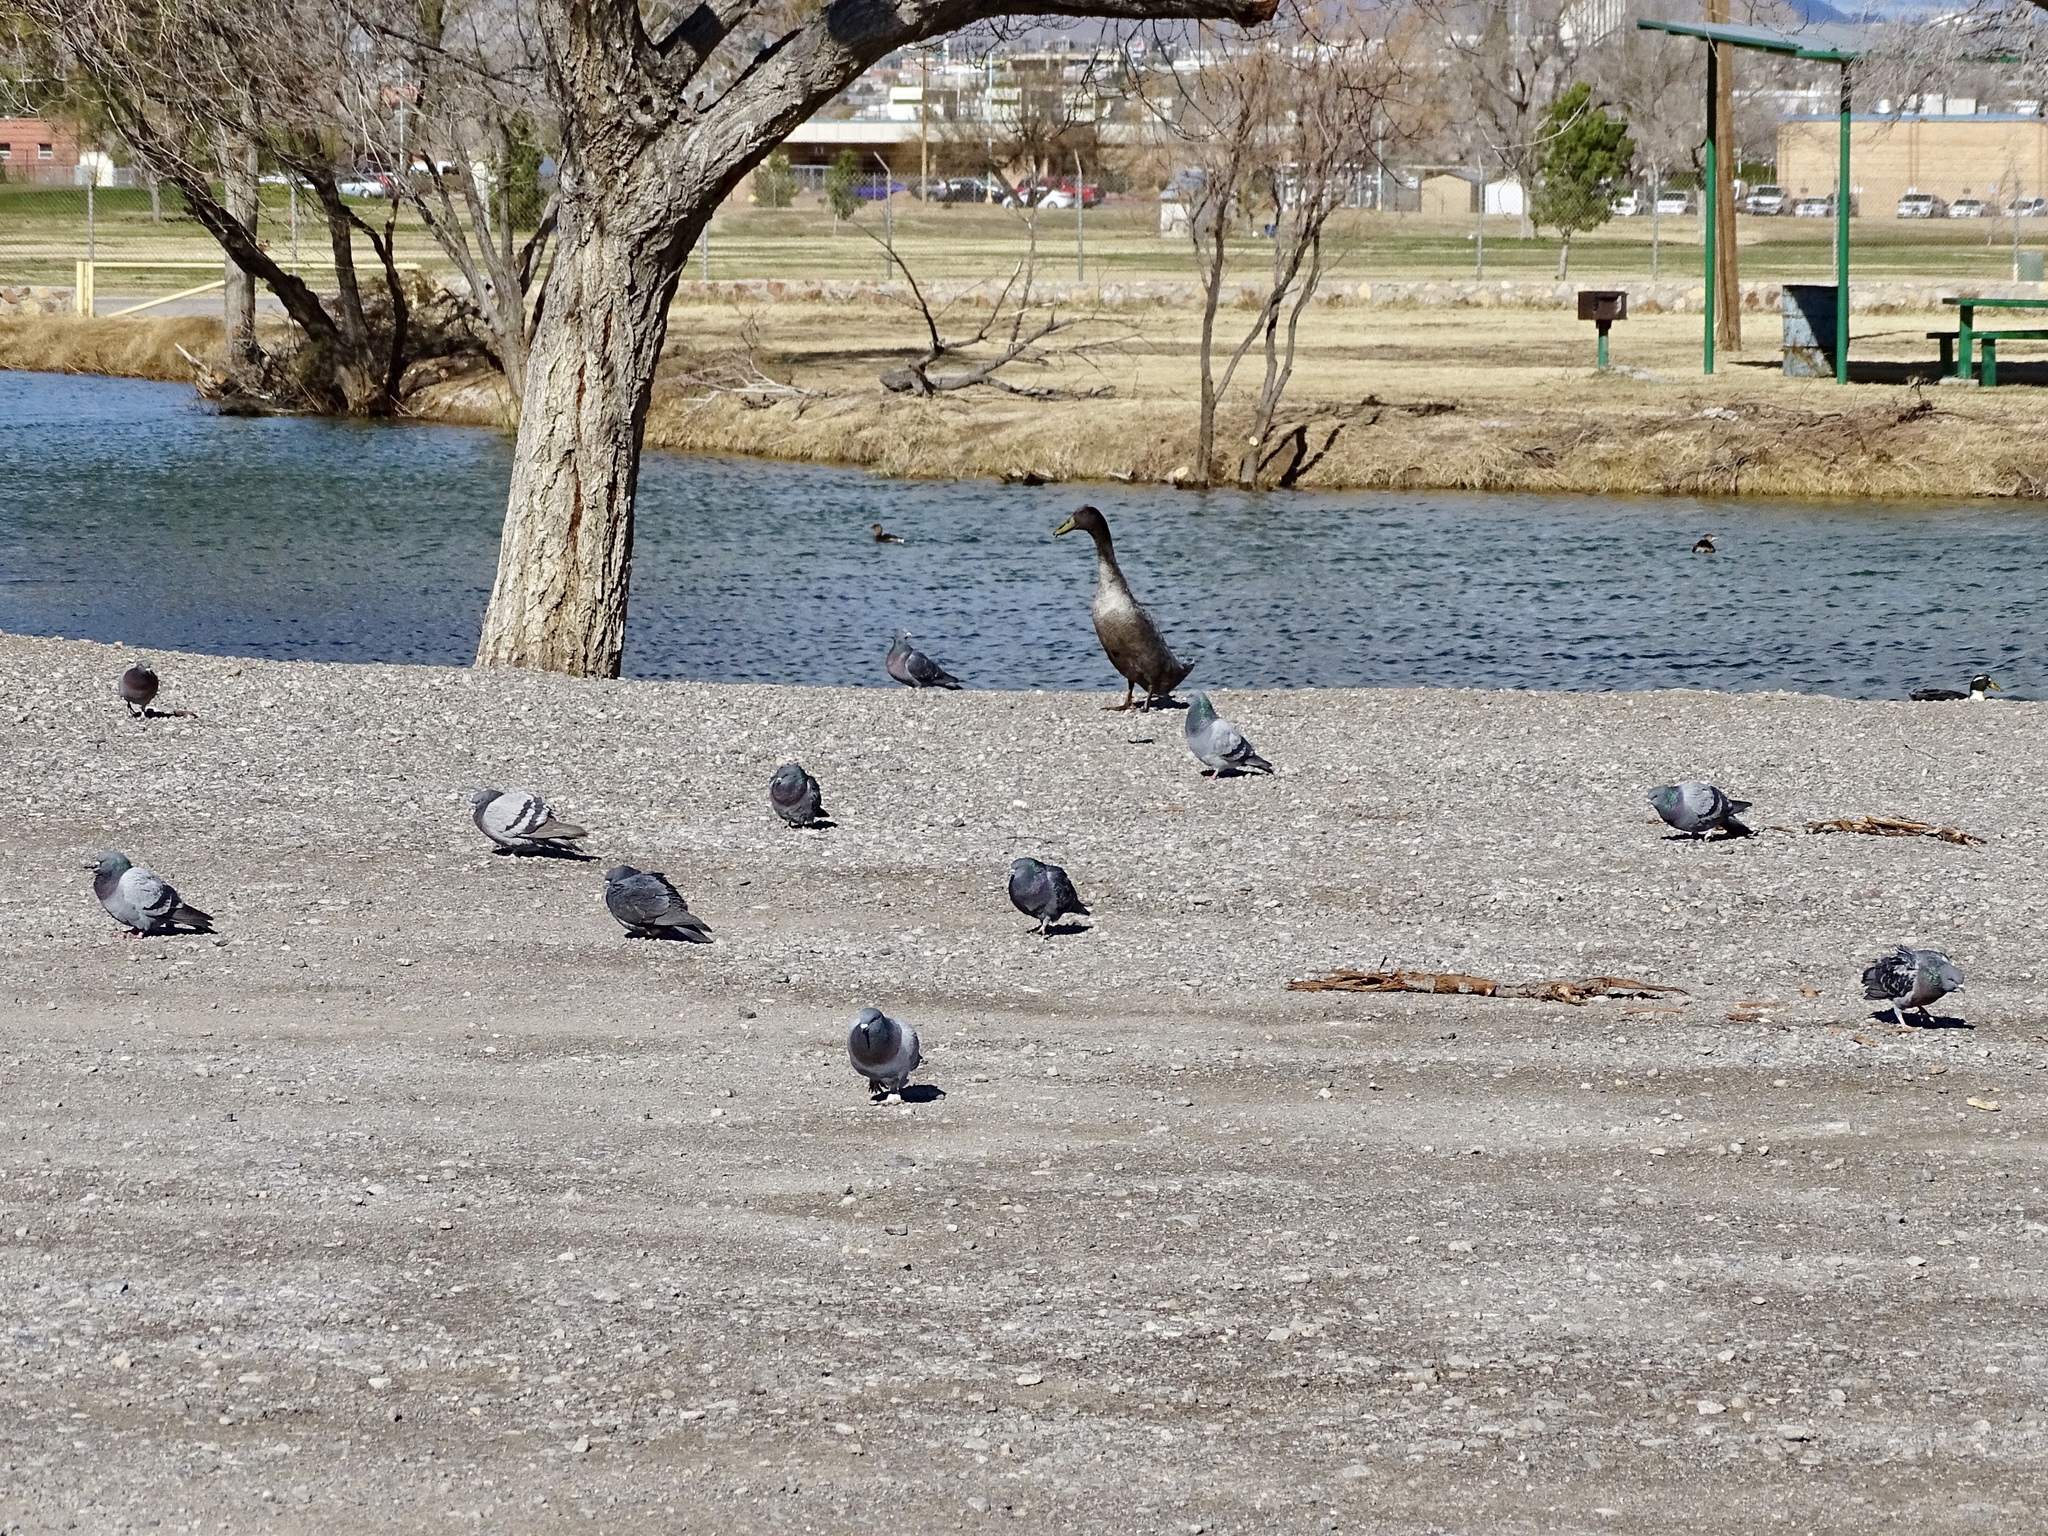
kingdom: Animalia
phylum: Chordata
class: Aves
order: Columbiformes
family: Columbidae
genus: Columba
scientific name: Columba livia
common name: Rock pigeon
